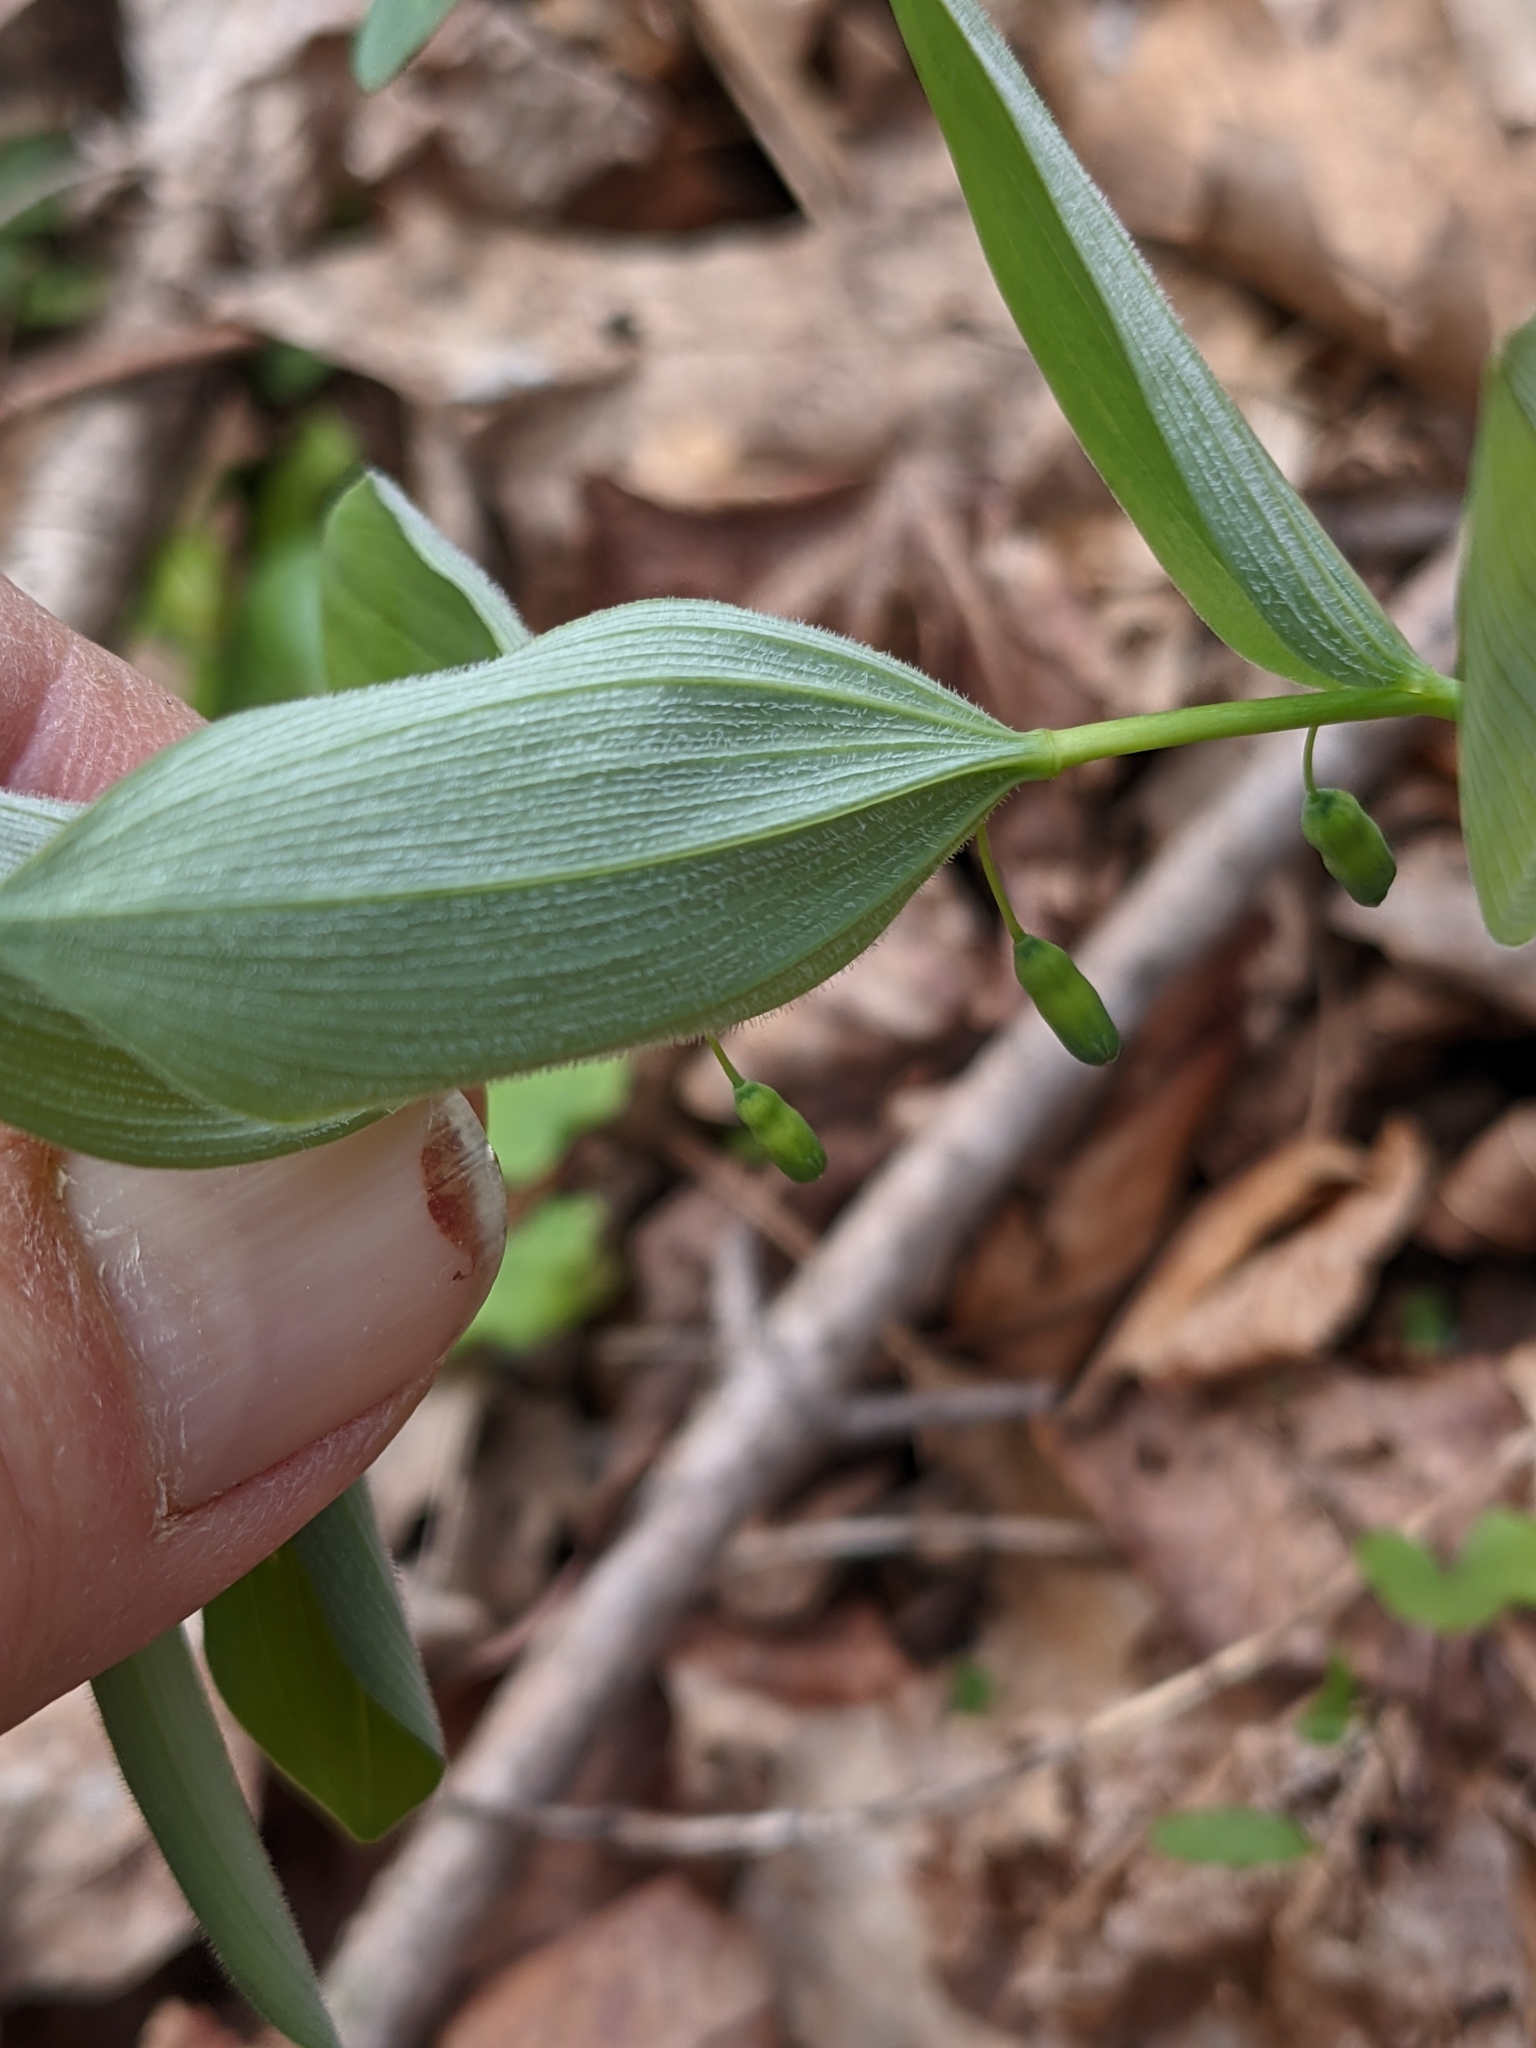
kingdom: Plantae
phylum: Tracheophyta
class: Liliopsida
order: Asparagales
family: Asparagaceae
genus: Polygonatum
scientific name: Polygonatum pubescens
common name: Downy solomon's seal
